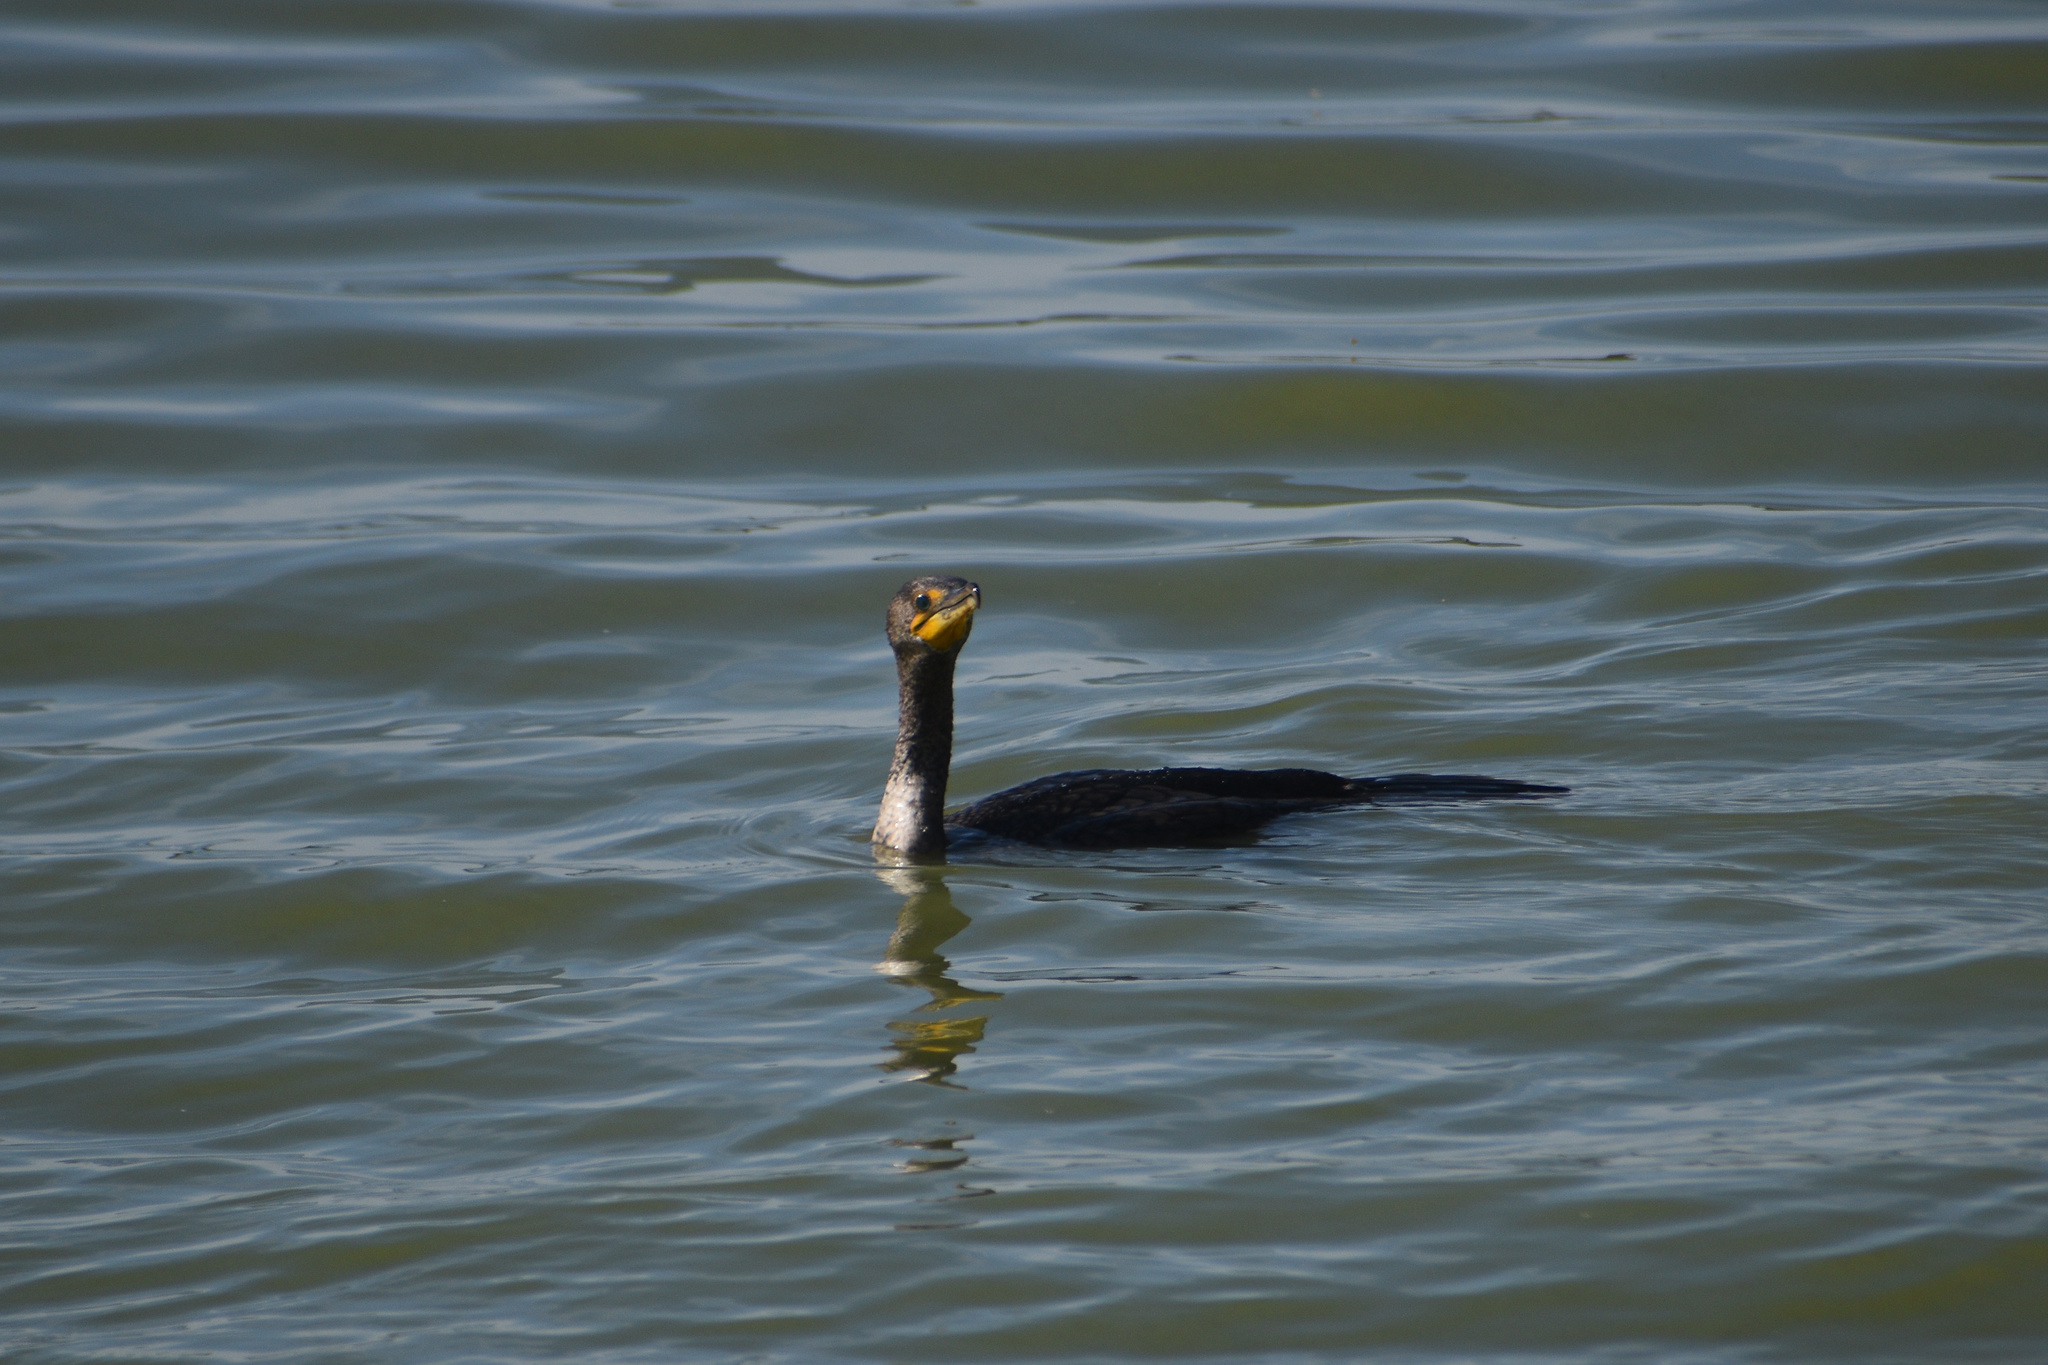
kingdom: Animalia
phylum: Chordata
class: Aves
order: Suliformes
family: Phalacrocoracidae
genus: Phalacrocorax
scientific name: Phalacrocorax auritus
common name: Double-crested cormorant
